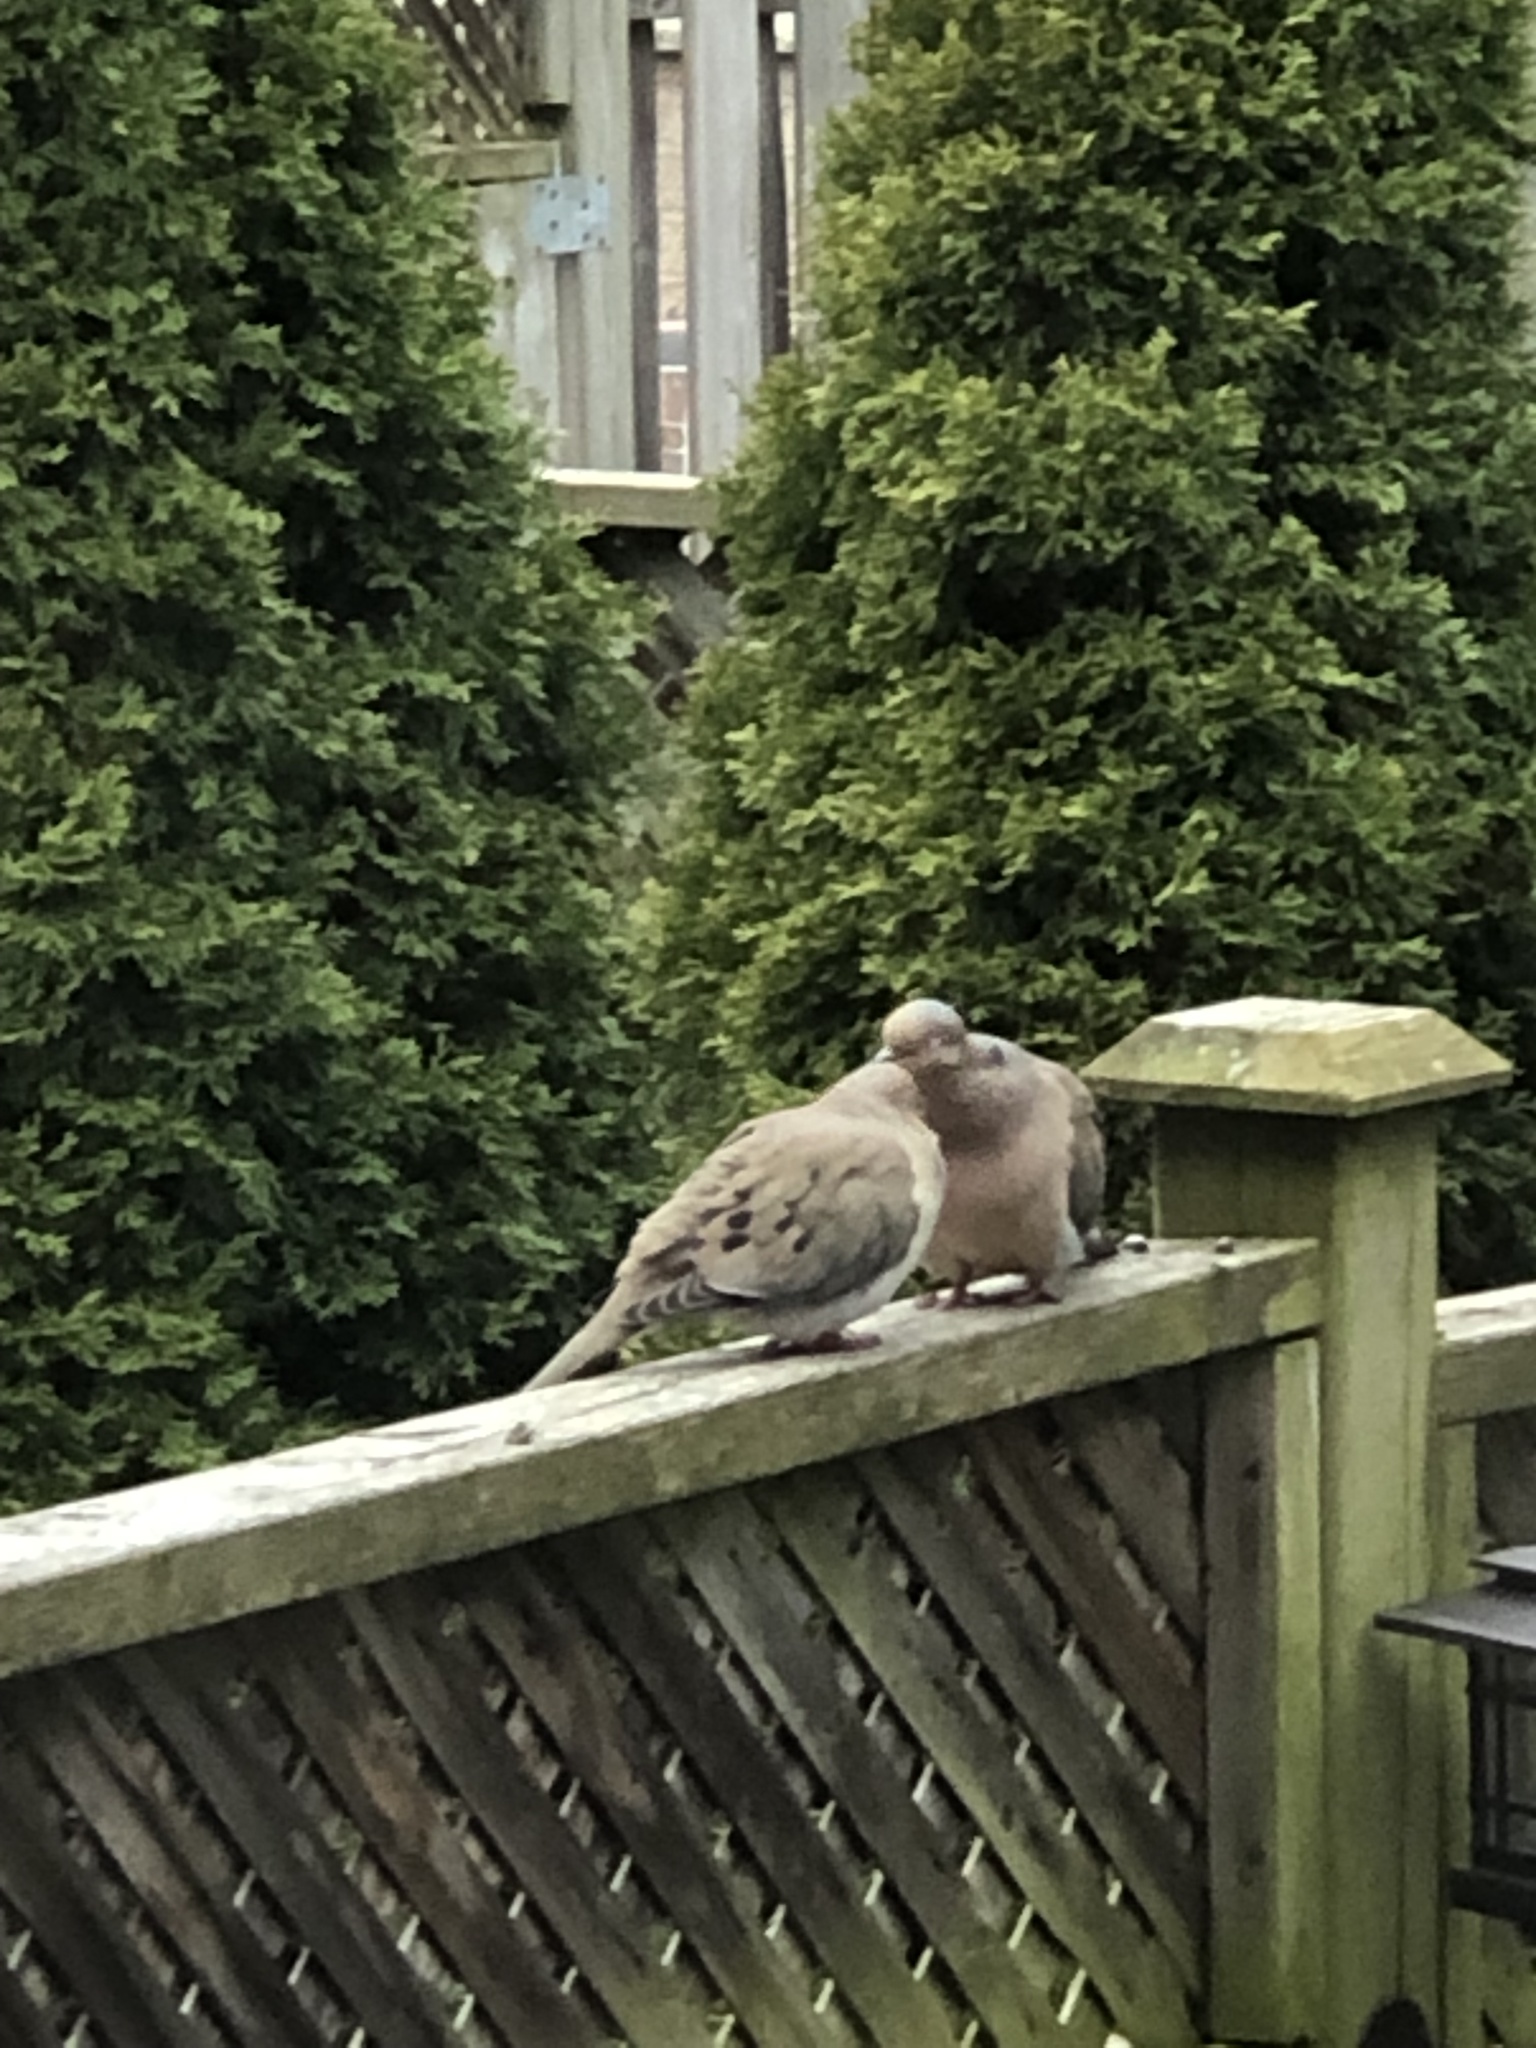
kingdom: Animalia
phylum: Chordata
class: Aves
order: Columbiformes
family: Columbidae
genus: Zenaida
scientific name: Zenaida macroura
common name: Mourning dove
